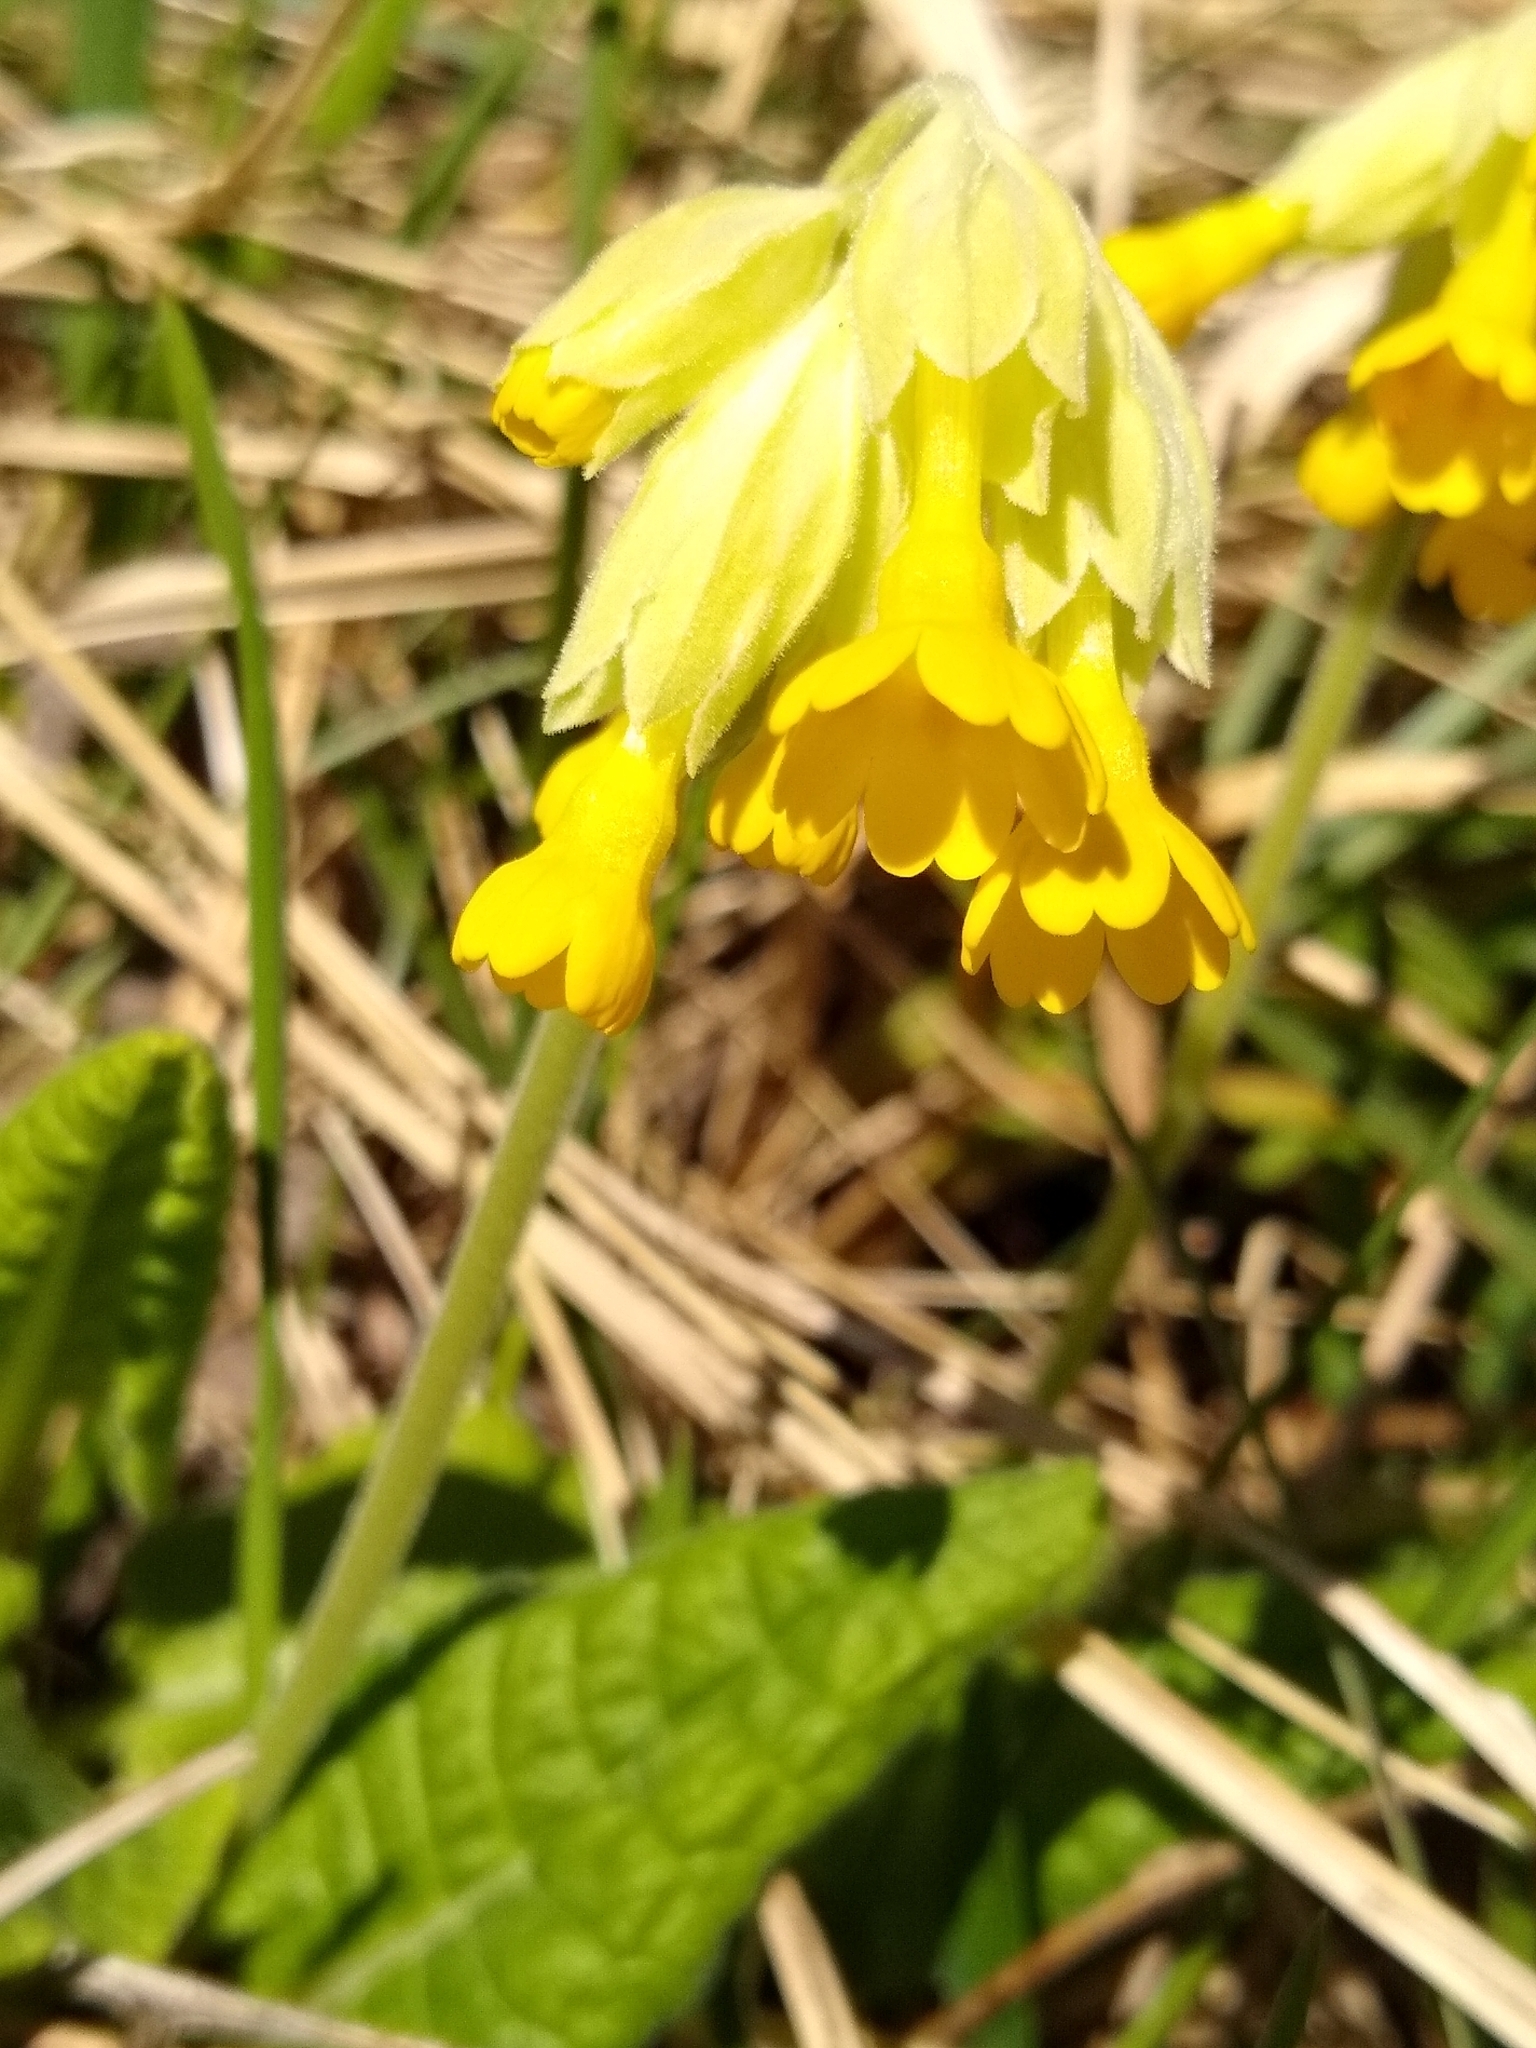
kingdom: Plantae
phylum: Tracheophyta
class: Magnoliopsida
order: Ericales
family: Primulaceae
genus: Primula
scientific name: Primula veris
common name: Cowslip
